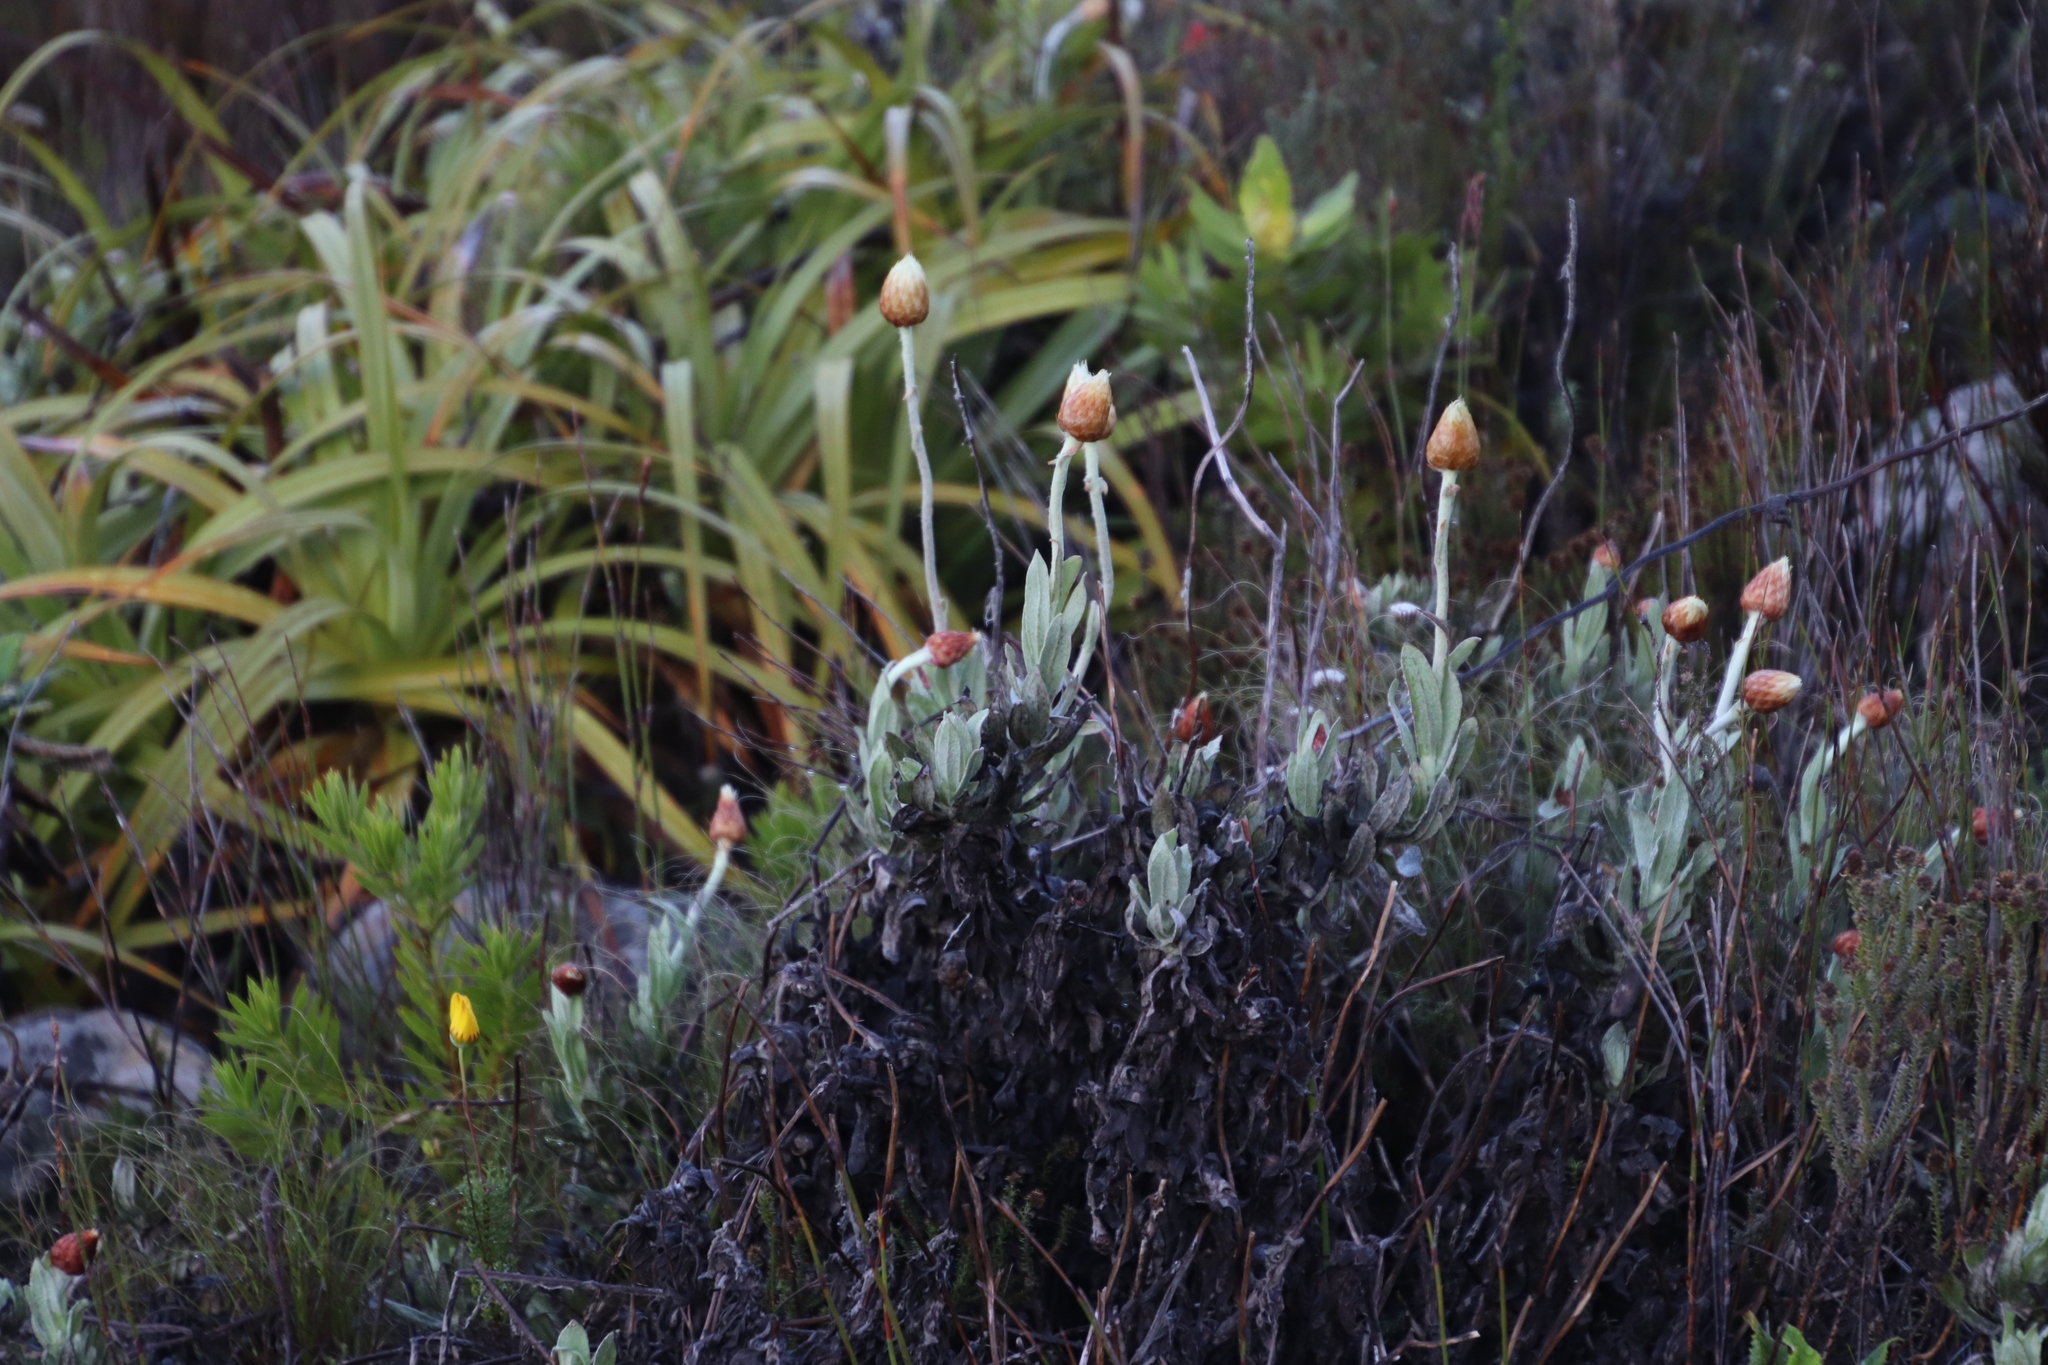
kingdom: Plantae
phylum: Tracheophyta
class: Magnoliopsida
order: Asterales
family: Asteraceae
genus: Syncarpha
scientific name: Syncarpha speciosissima
